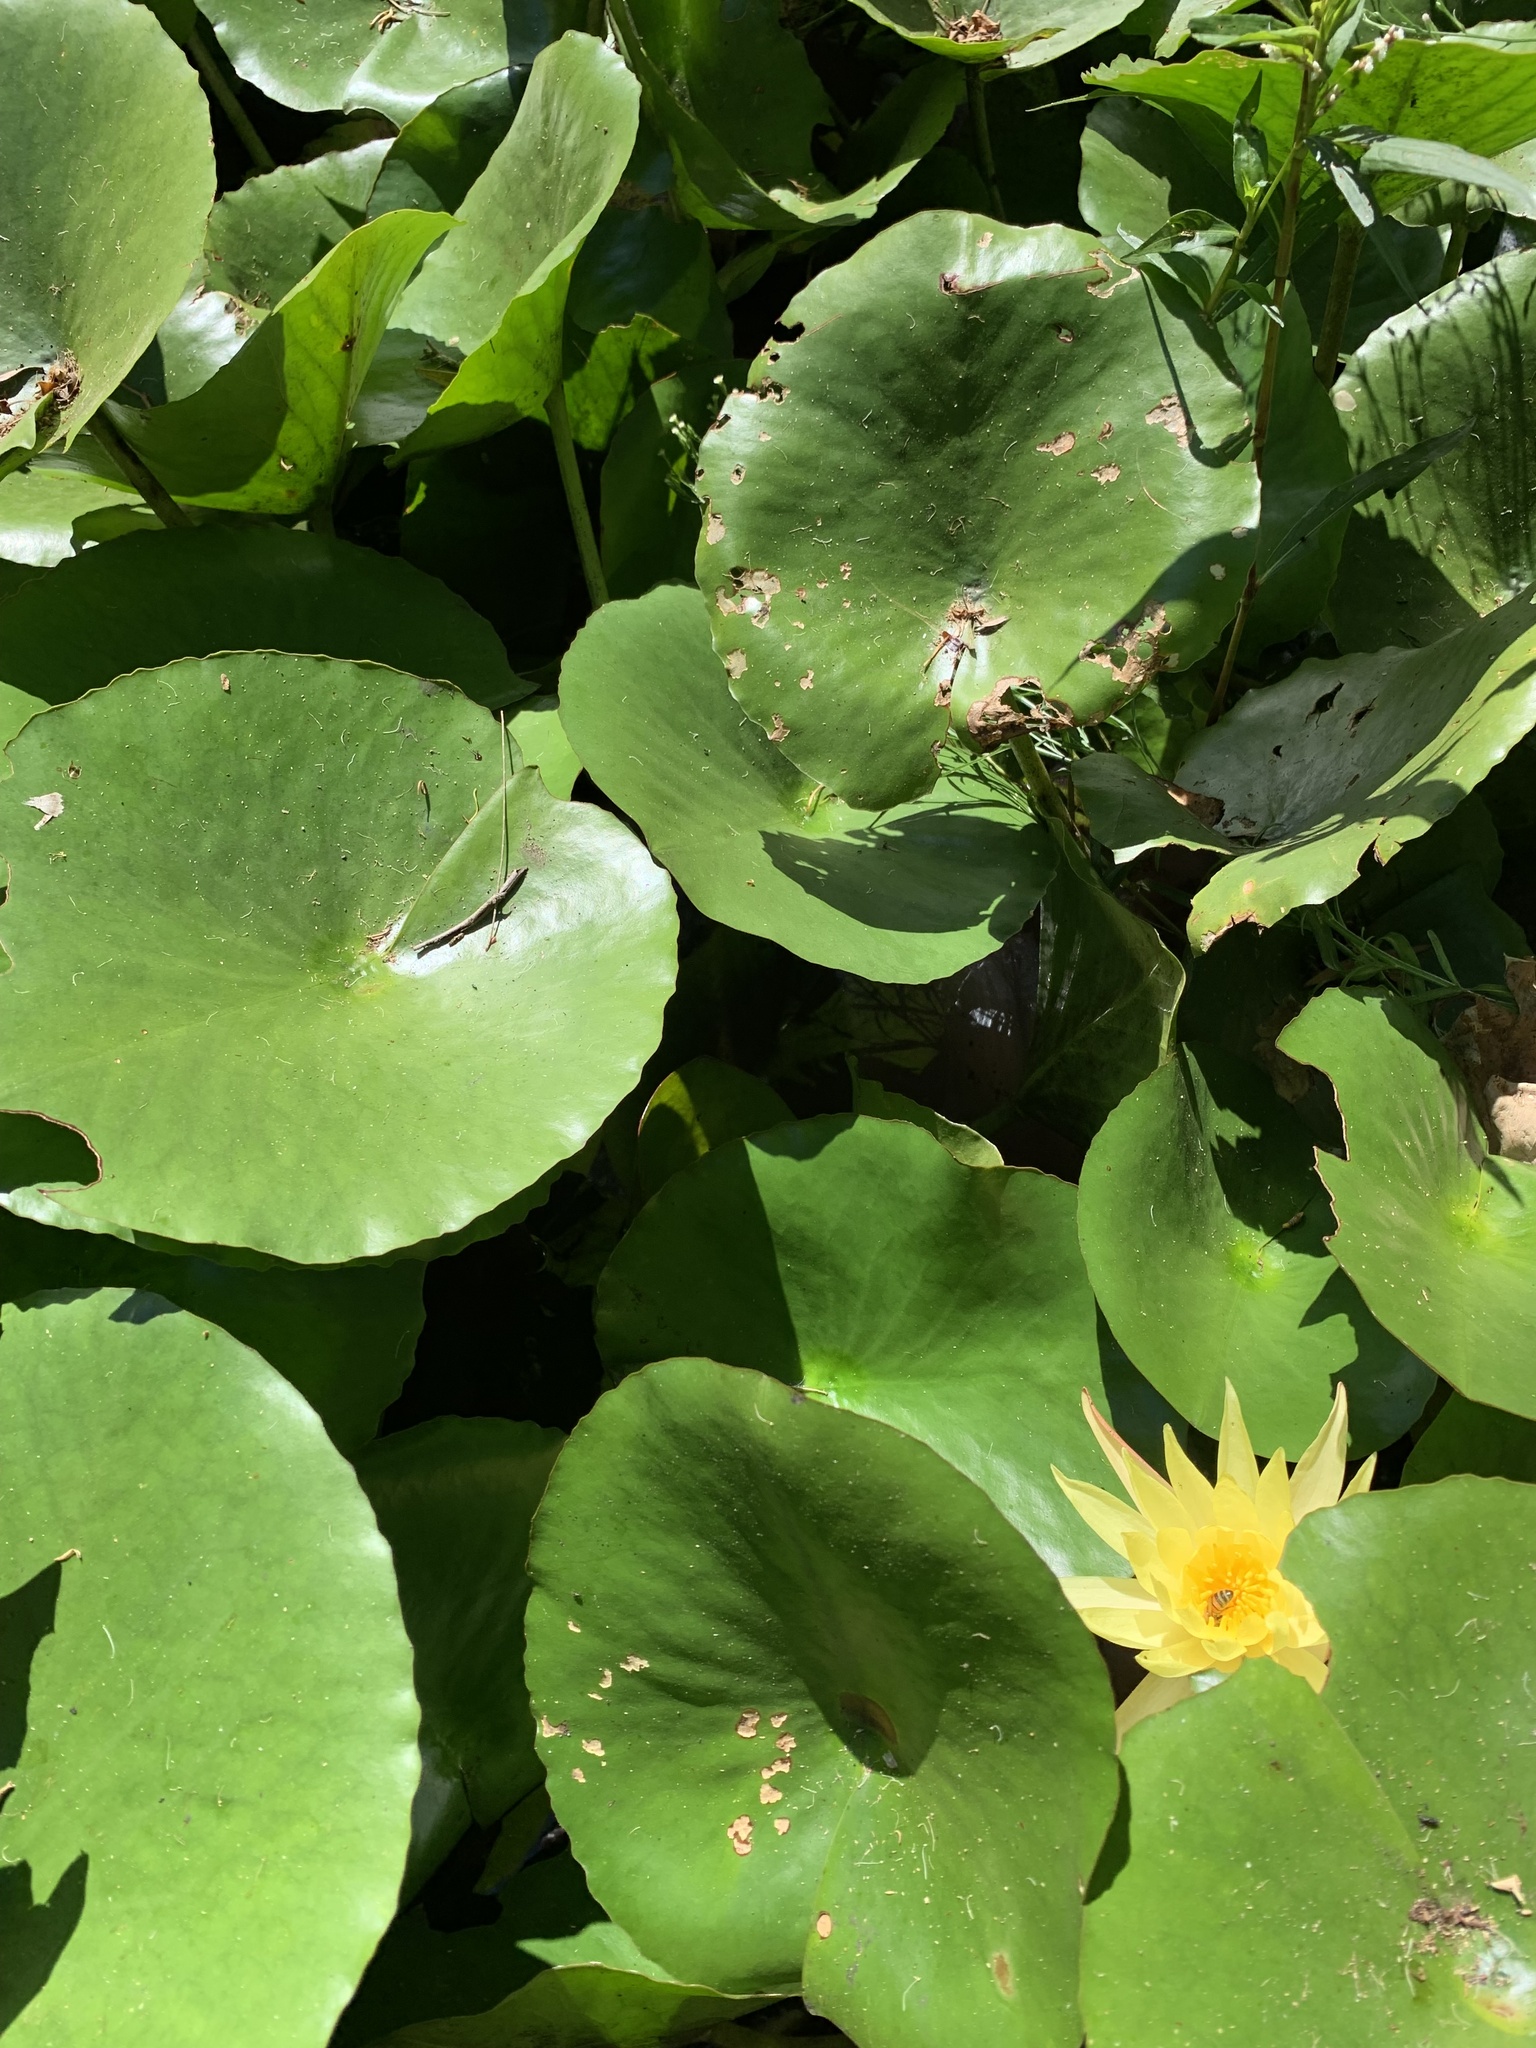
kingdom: Plantae
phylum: Tracheophyta
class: Magnoliopsida
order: Nymphaeales
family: Nymphaeaceae
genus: Nymphaea
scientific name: Nymphaea mexicana
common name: Banana water-lily
